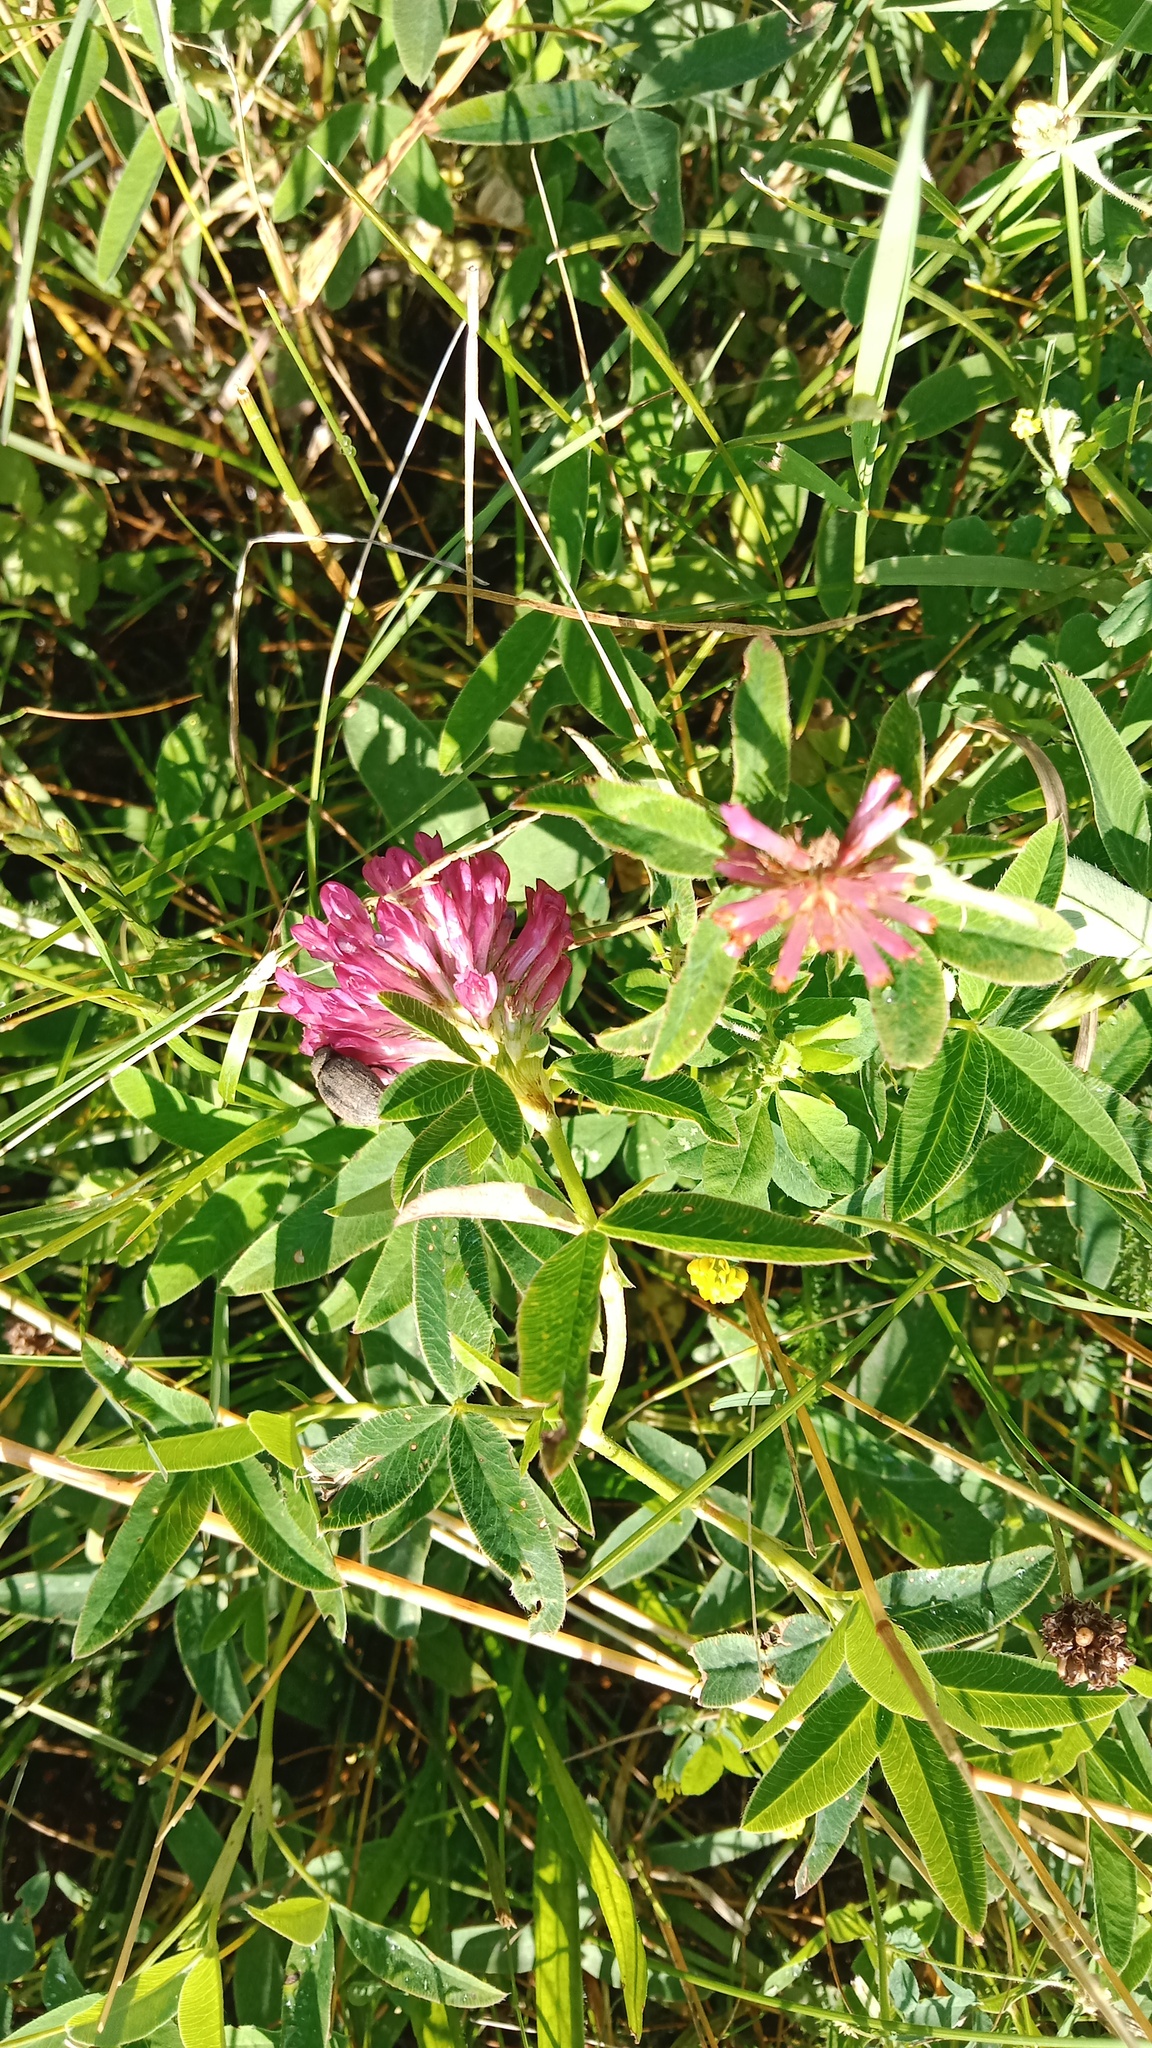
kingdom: Plantae
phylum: Tracheophyta
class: Magnoliopsida
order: Fabales
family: Fabaceae
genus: Trifolium
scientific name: Trifolium medium
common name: Zigzag clover
